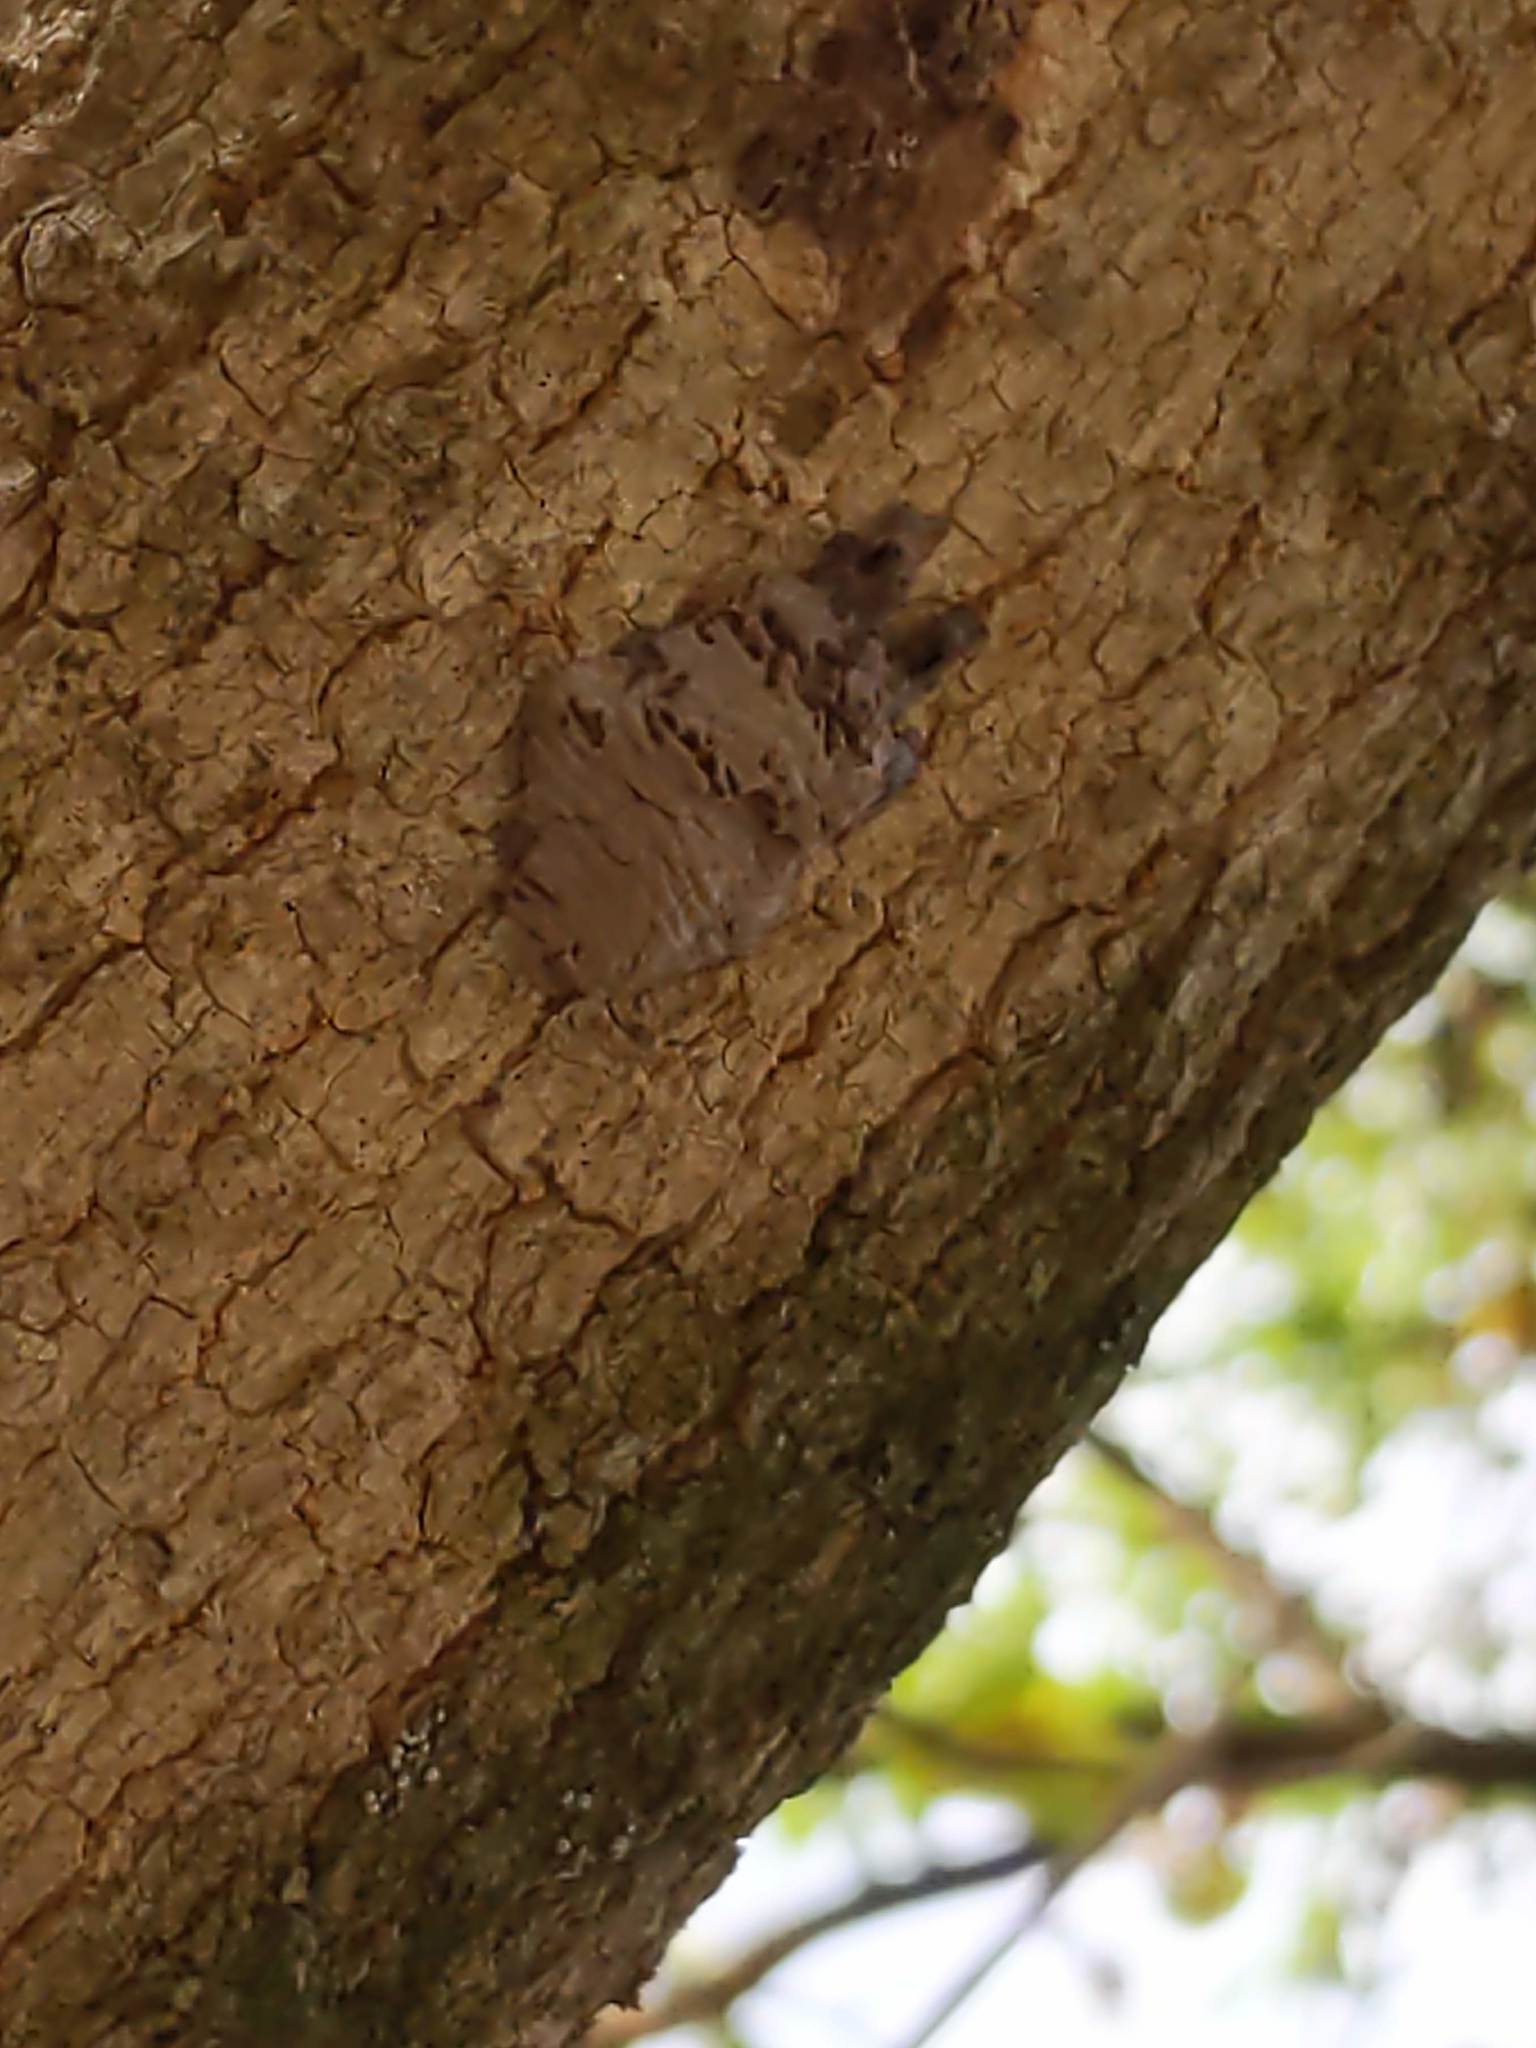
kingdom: Animalia
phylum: Arthropoda
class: Insecta
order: Hemiptera
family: Fulgoridae
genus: Lycorma
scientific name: Lycorma delicatula
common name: Spotted lanternfly
